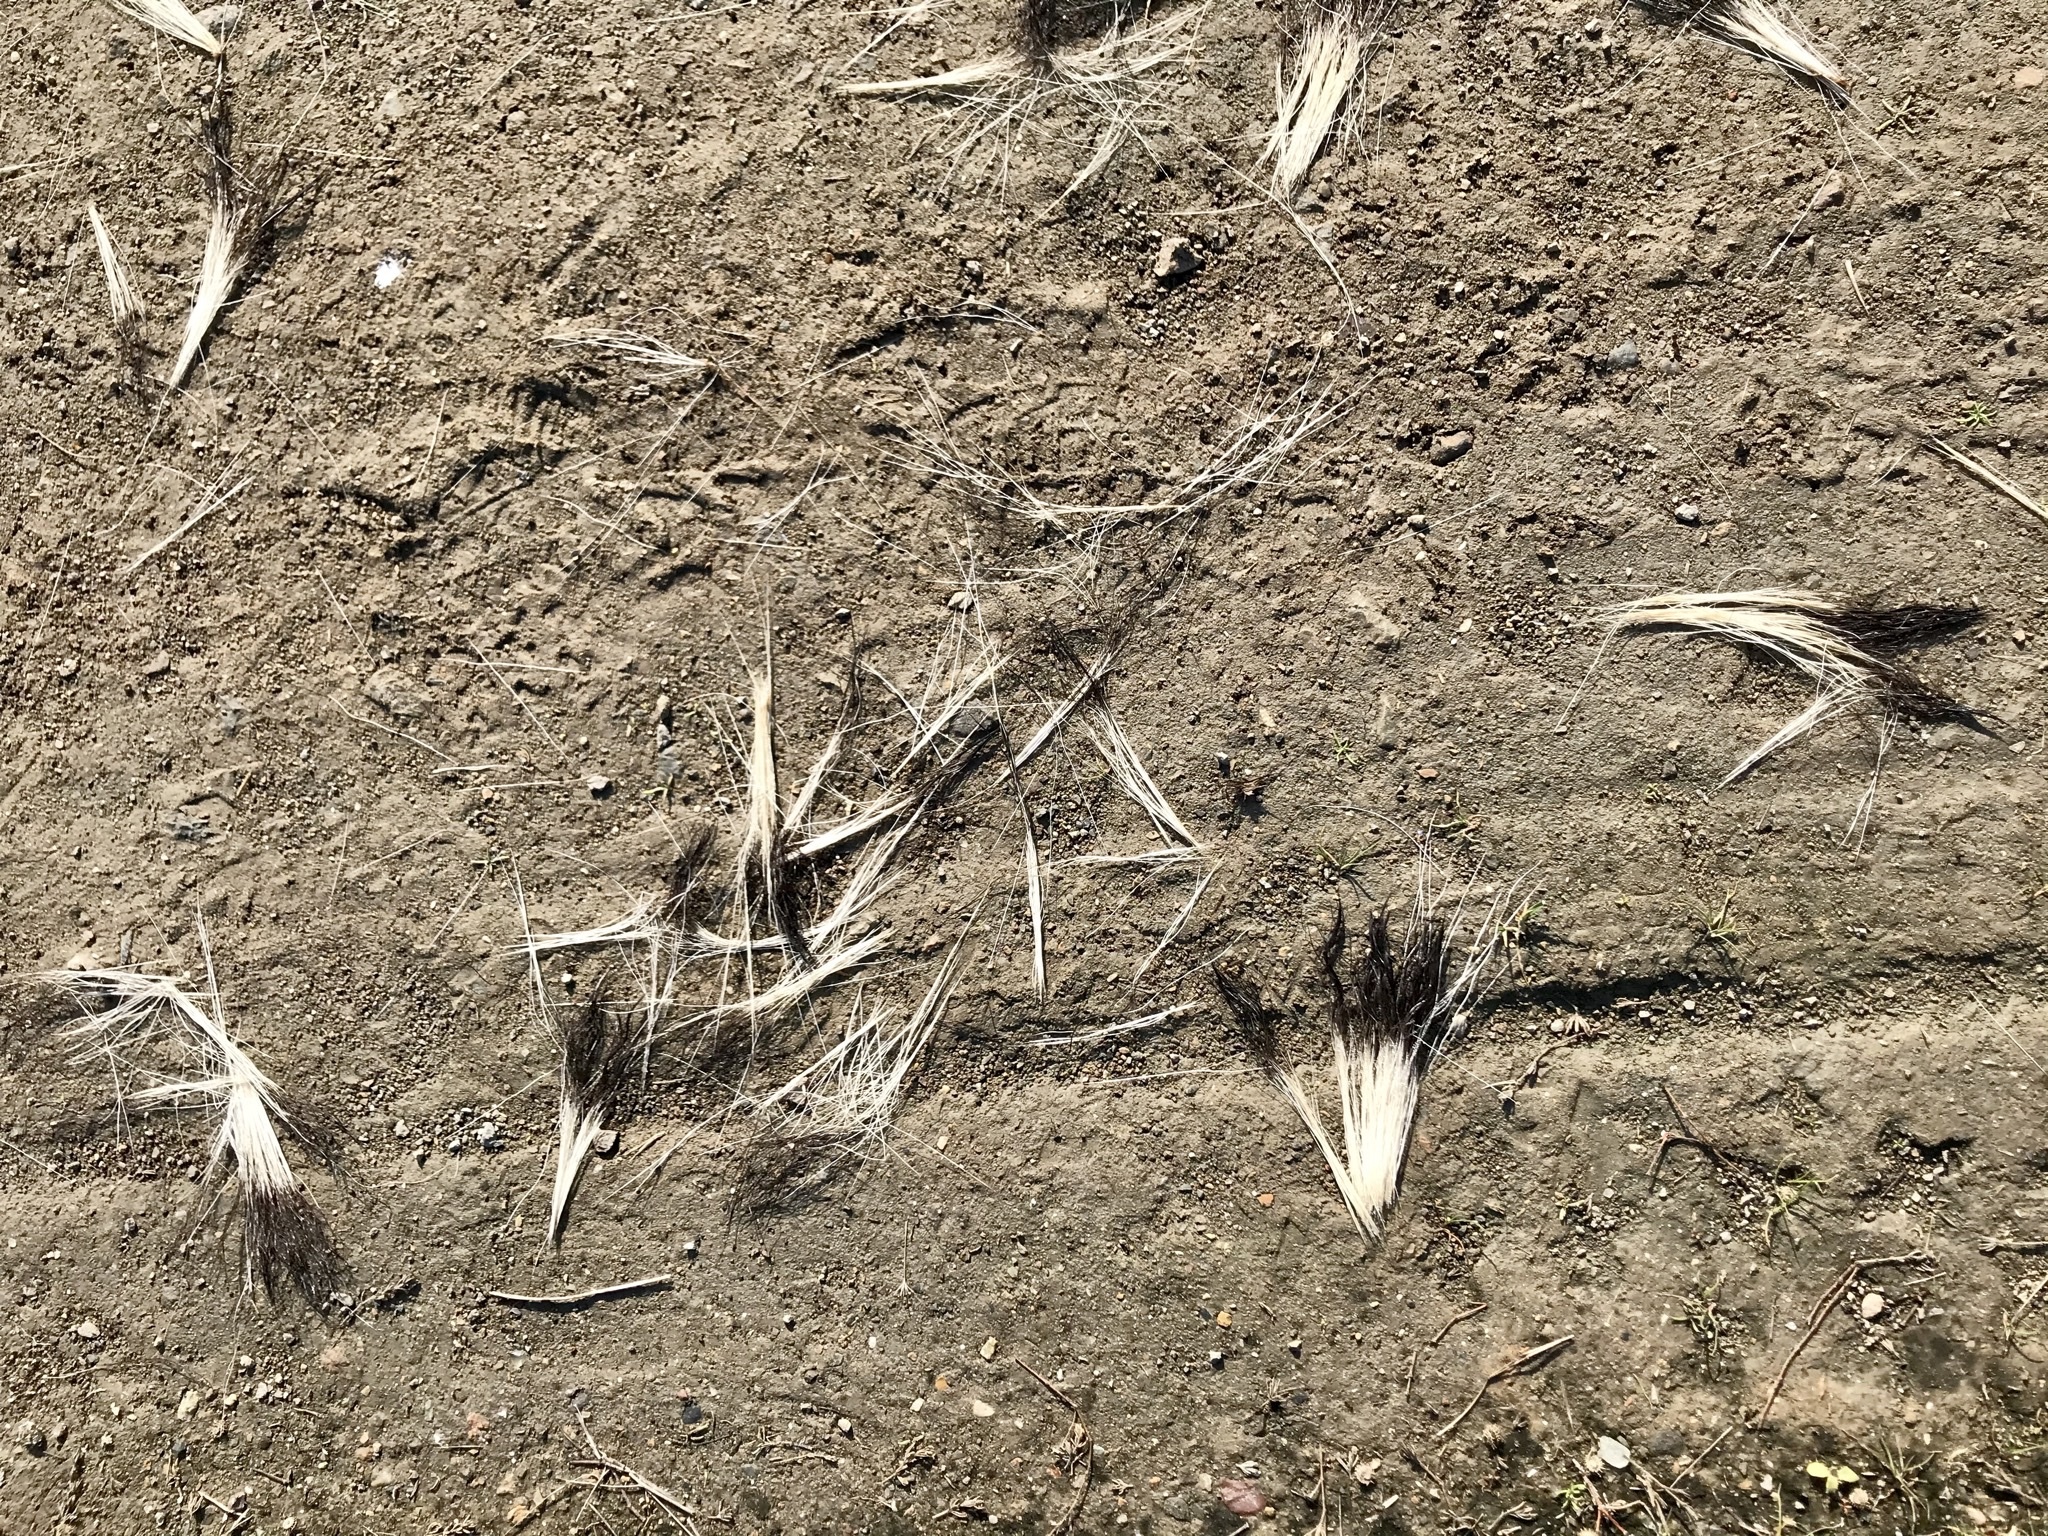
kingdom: Animalia
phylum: Chordata
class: Mammalia
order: Carnivora
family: Mephitidae
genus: Mephitis
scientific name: Mephitis mephitis
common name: Striped skunk
